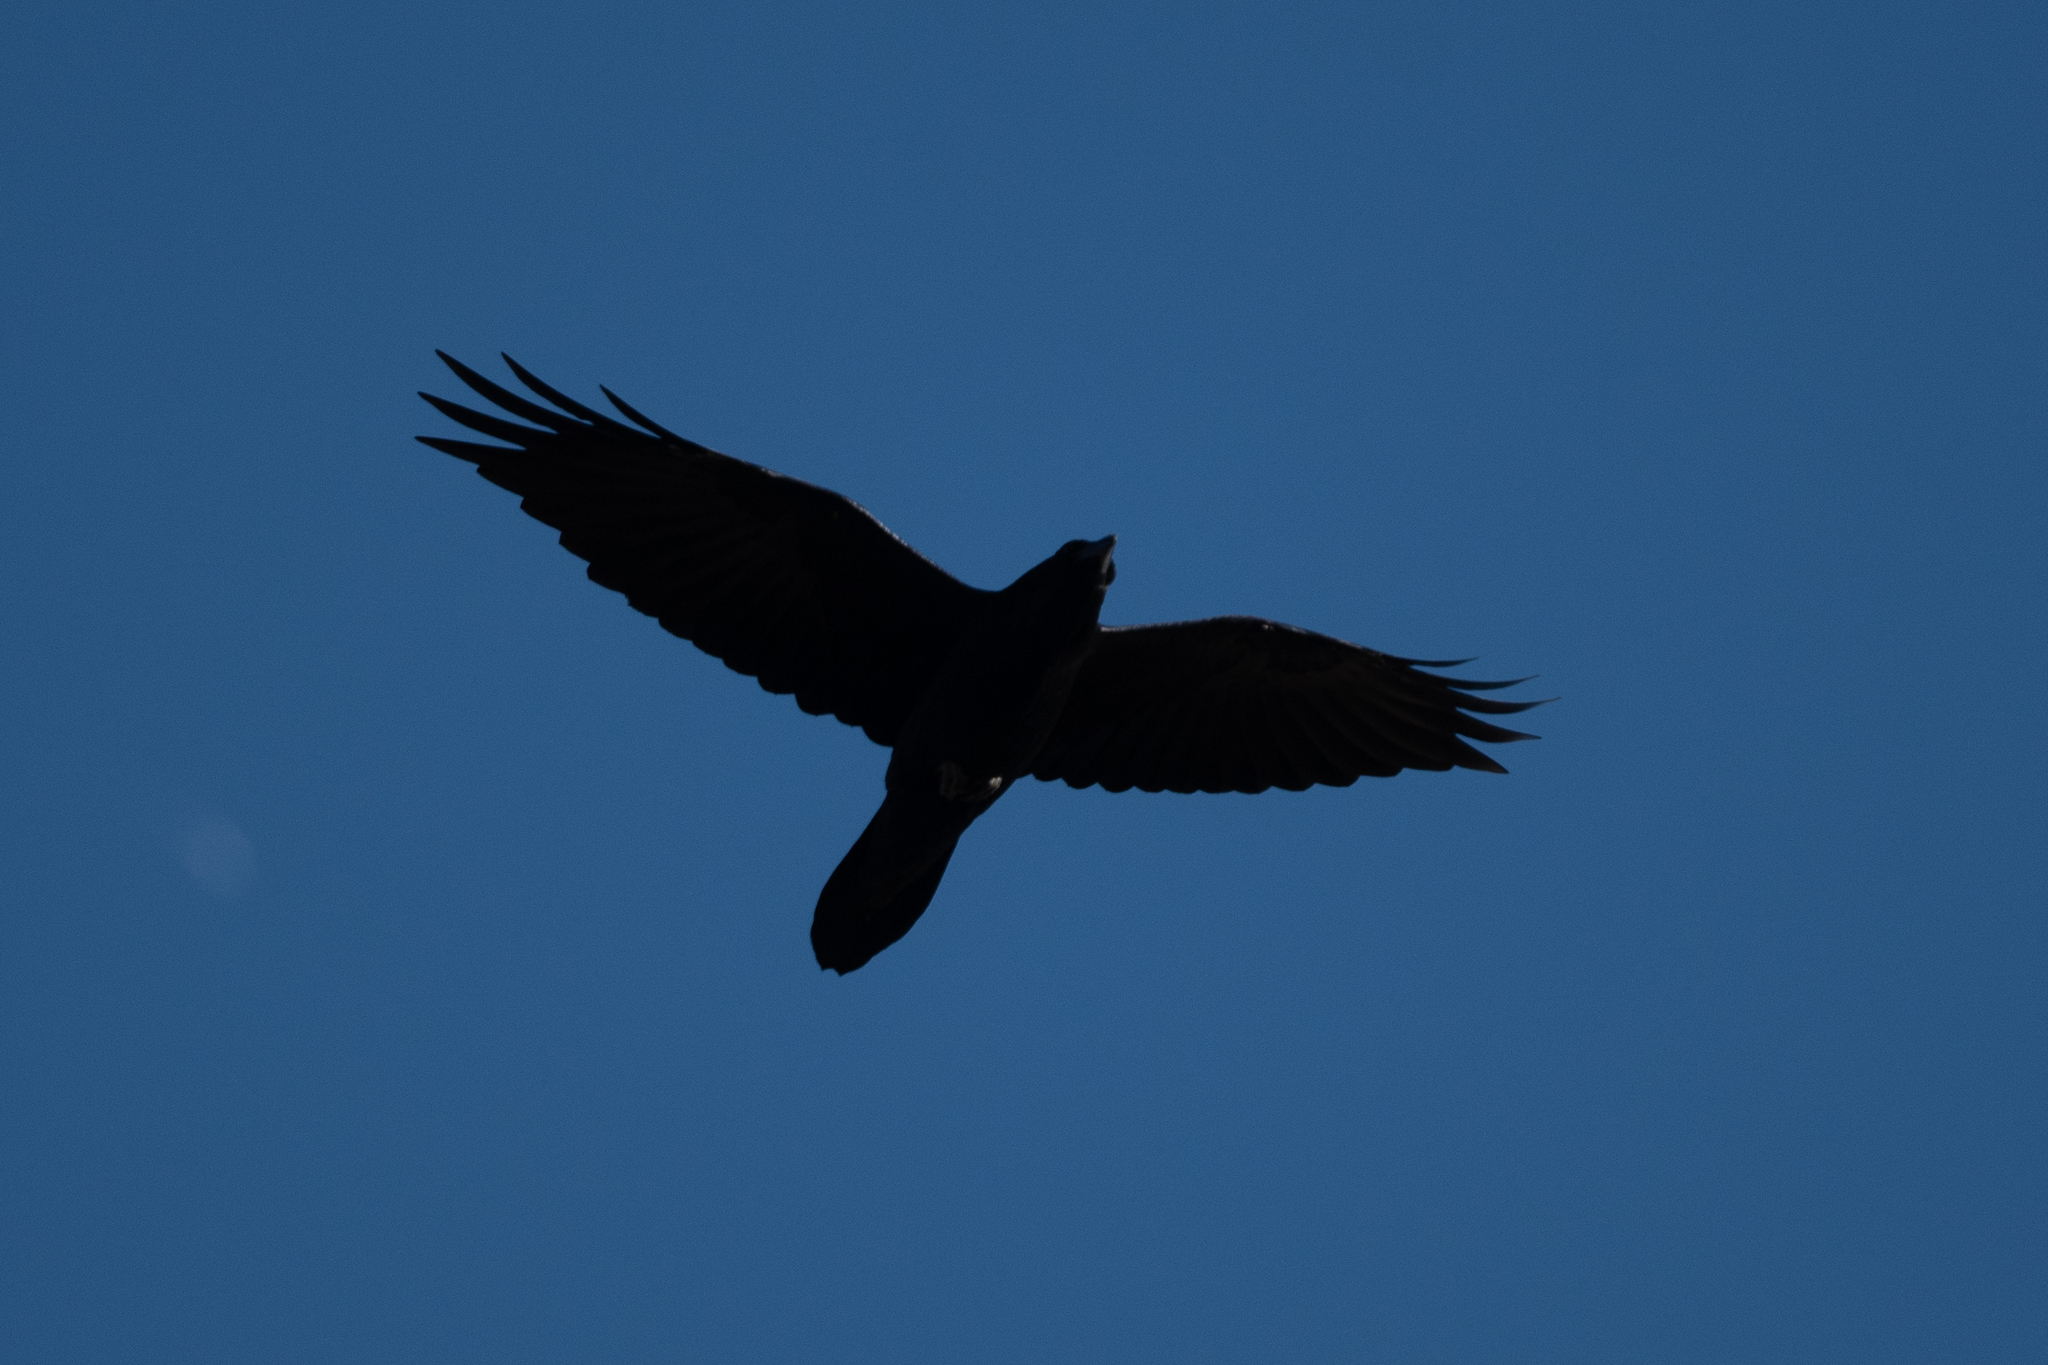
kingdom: Animalia
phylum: Chordata
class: Aves
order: Passeriformes
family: Corvidae
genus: Corvus
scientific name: Corvus corax
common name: Common raven
